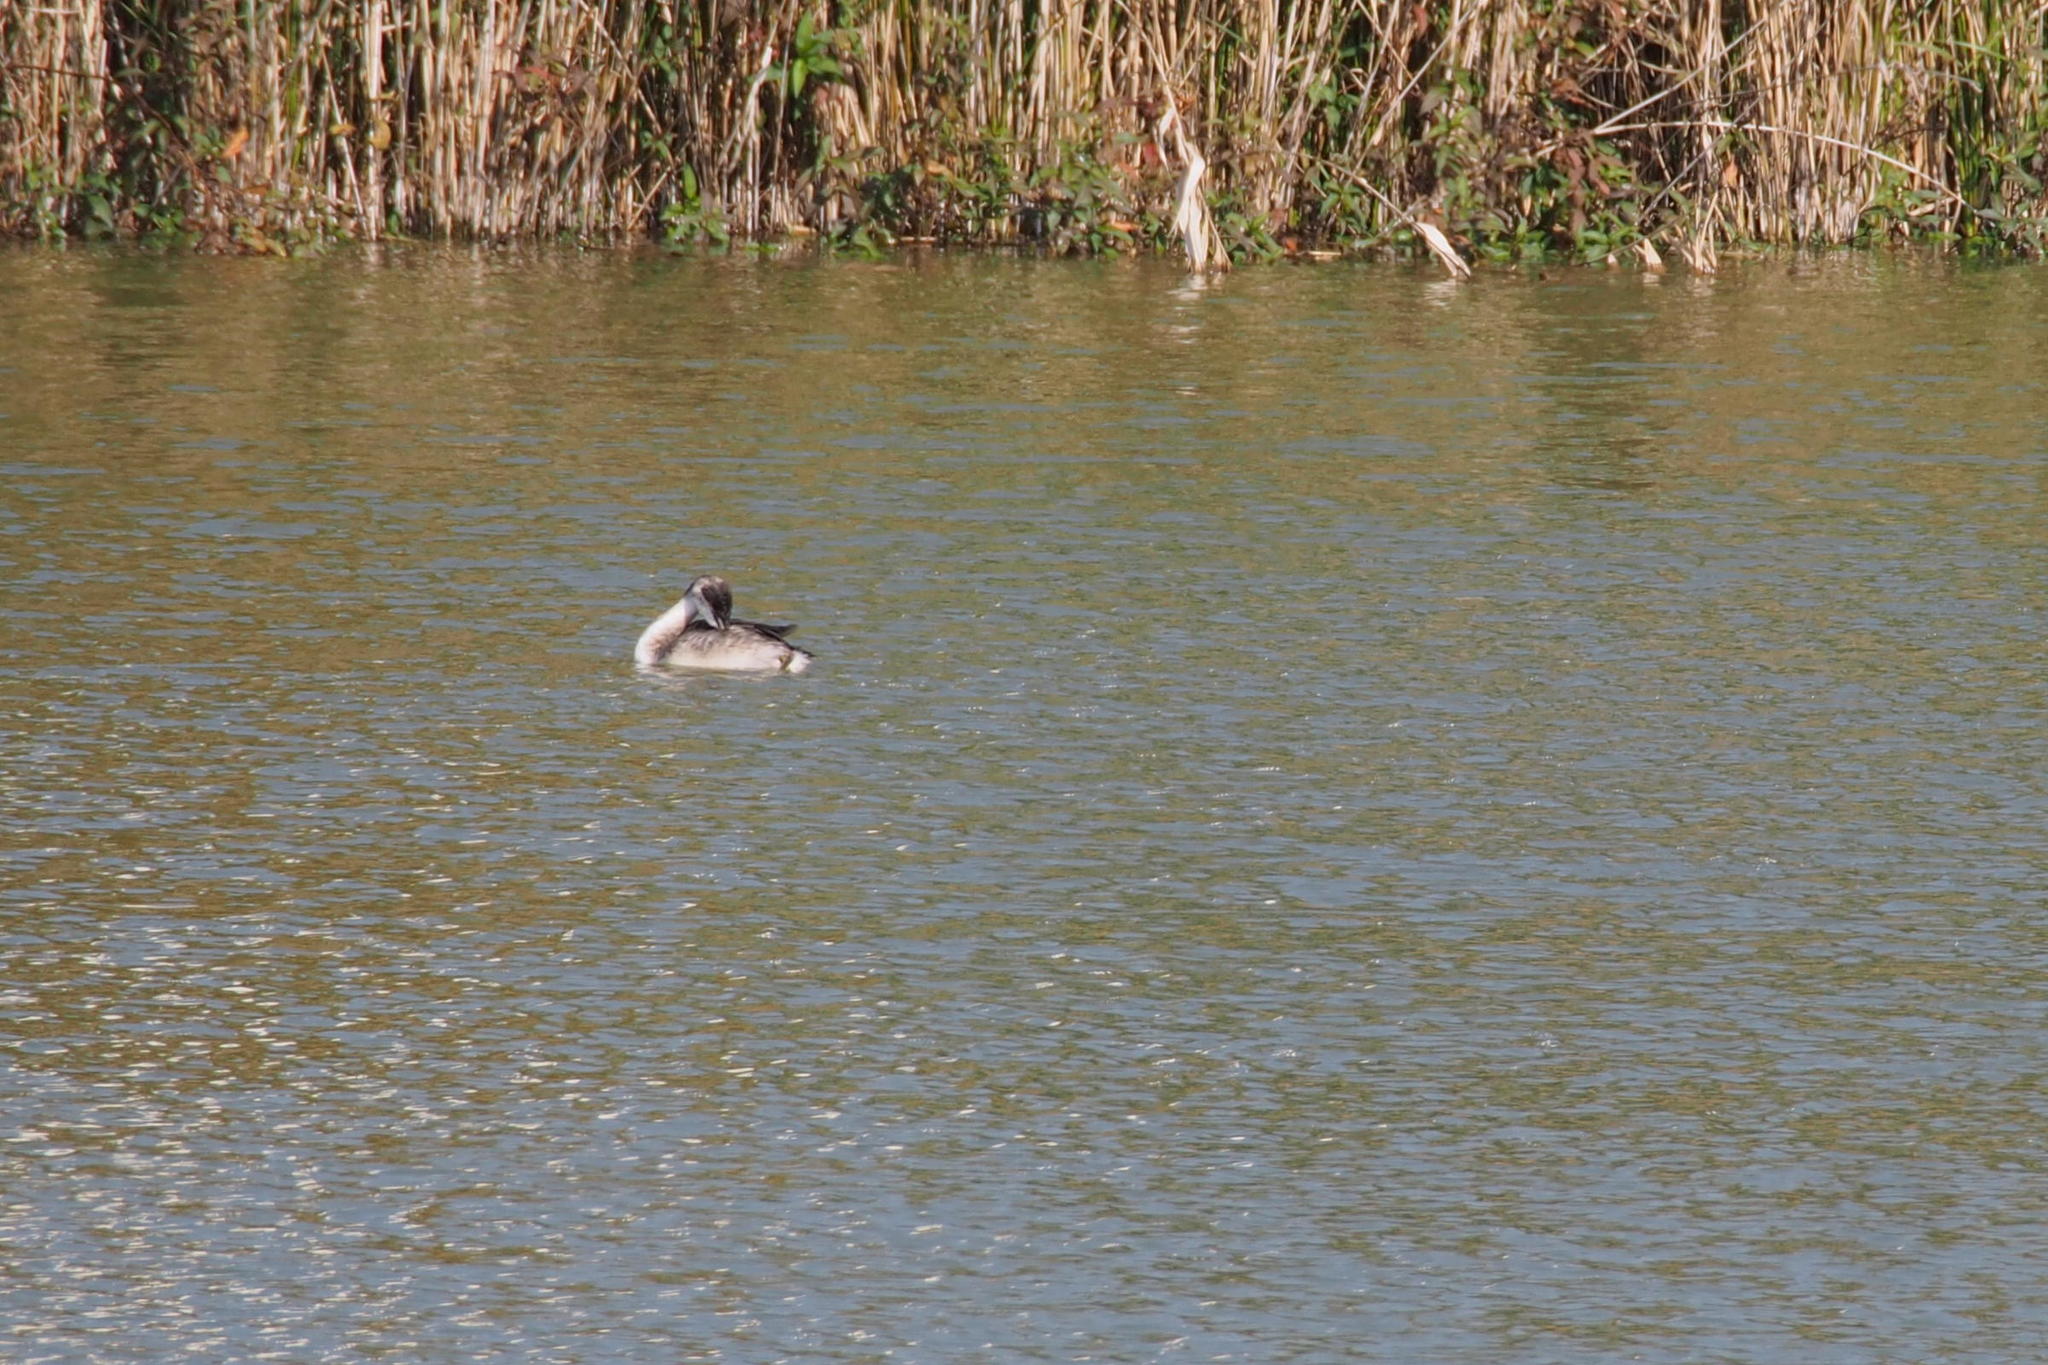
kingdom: Animalia
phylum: Chordata
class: Aves
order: Podicipediformes
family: Podicipedidae
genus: Podiceps
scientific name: Podiceps cristatus
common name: Great crested grebe
